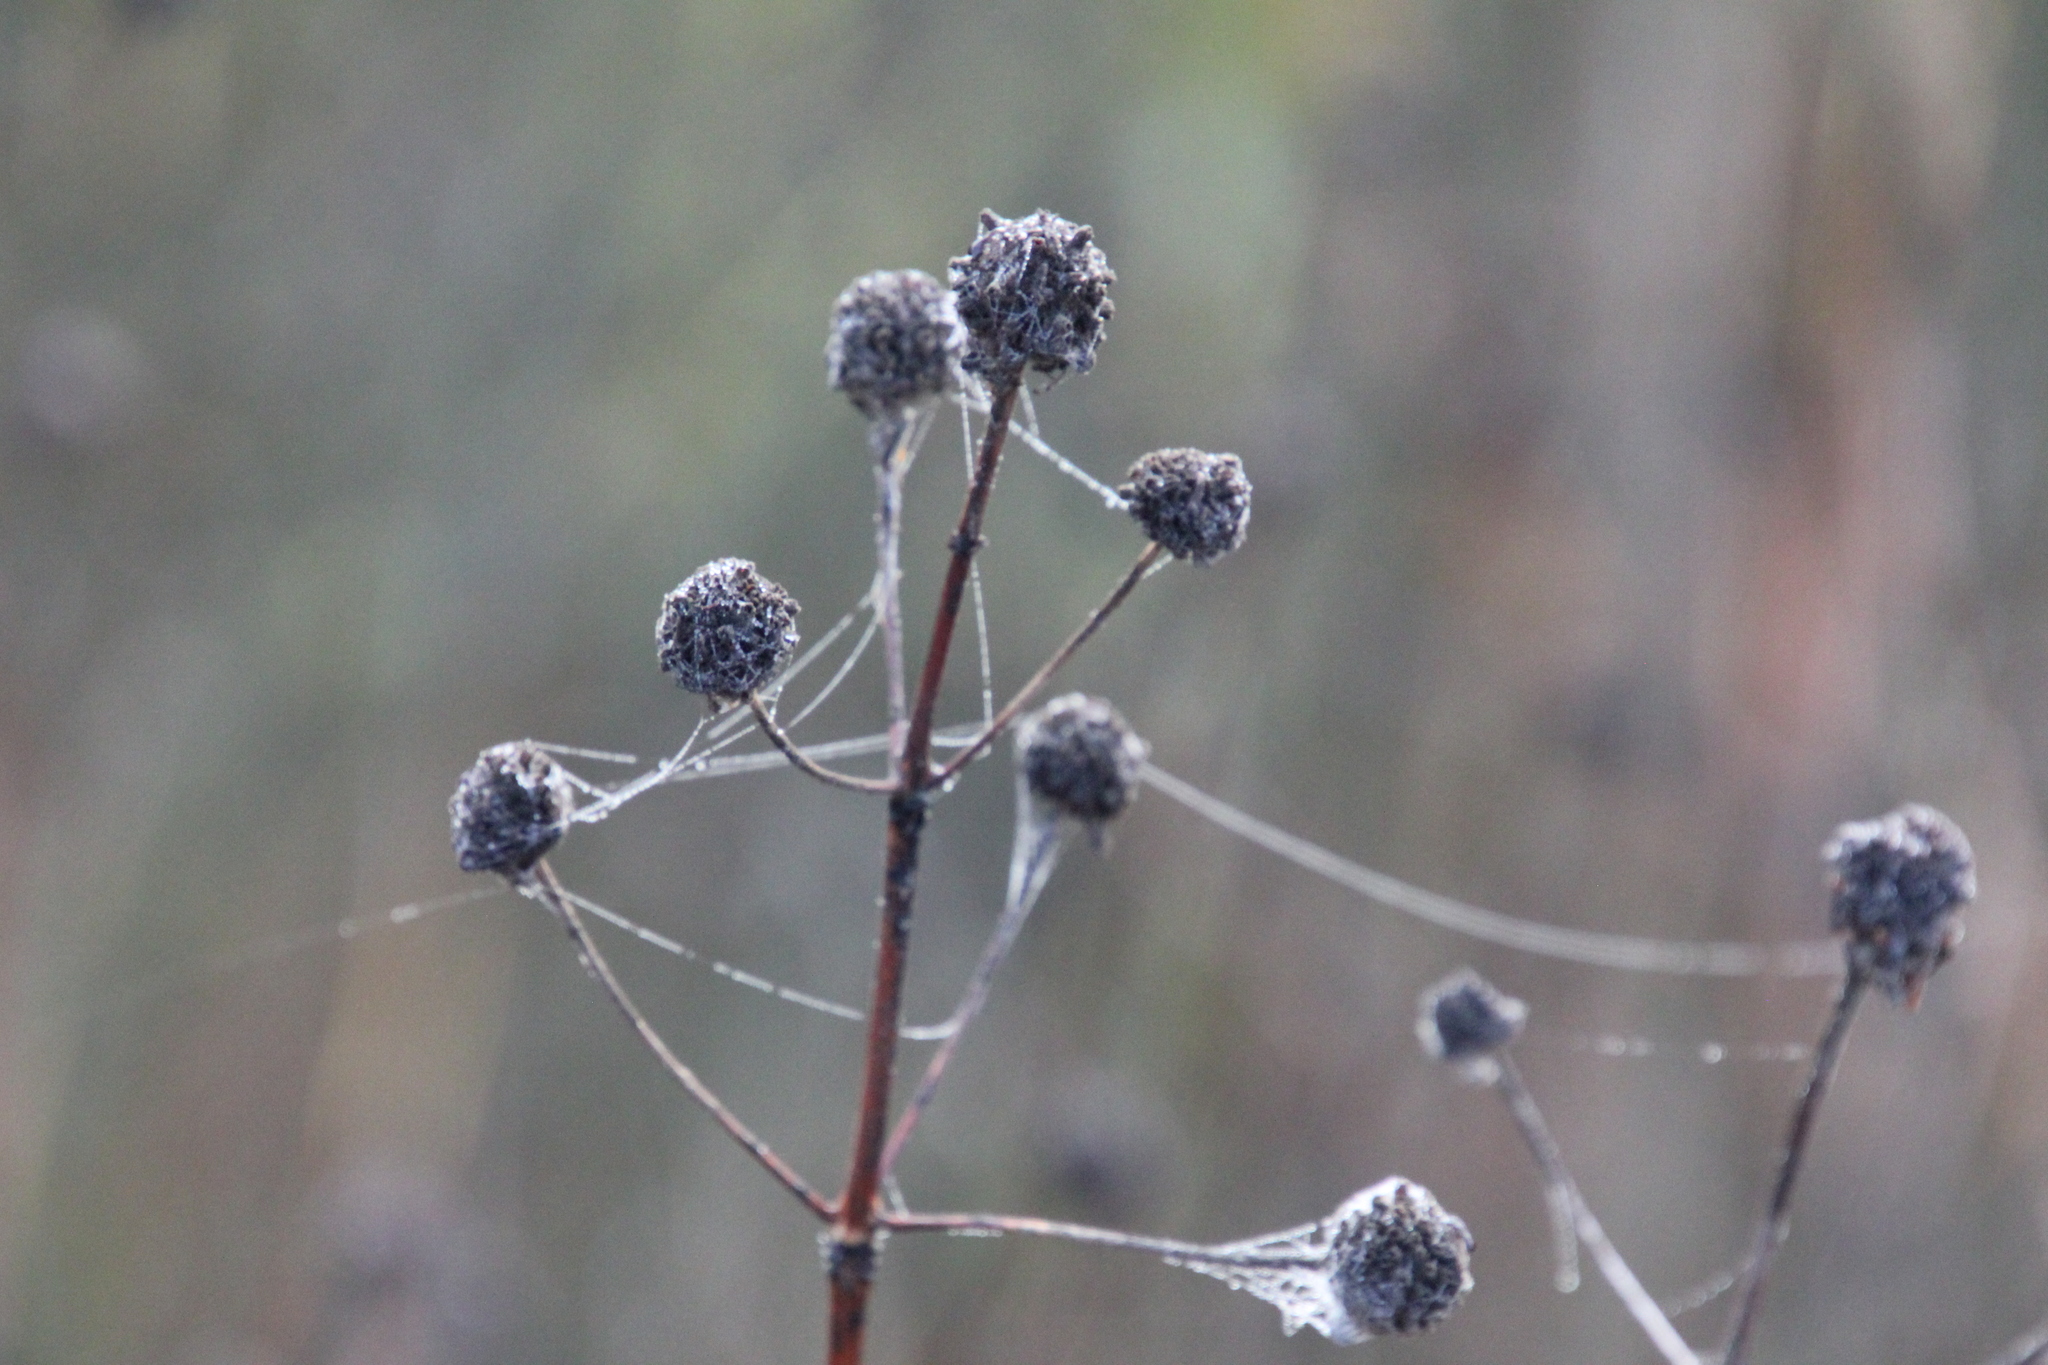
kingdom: Plantae
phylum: Tracheophyta
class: Magnoliopsida
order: Gentianales
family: Rubiaceae
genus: Cephalanthus
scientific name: Cephalanthus occidentalis
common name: Button-willow
